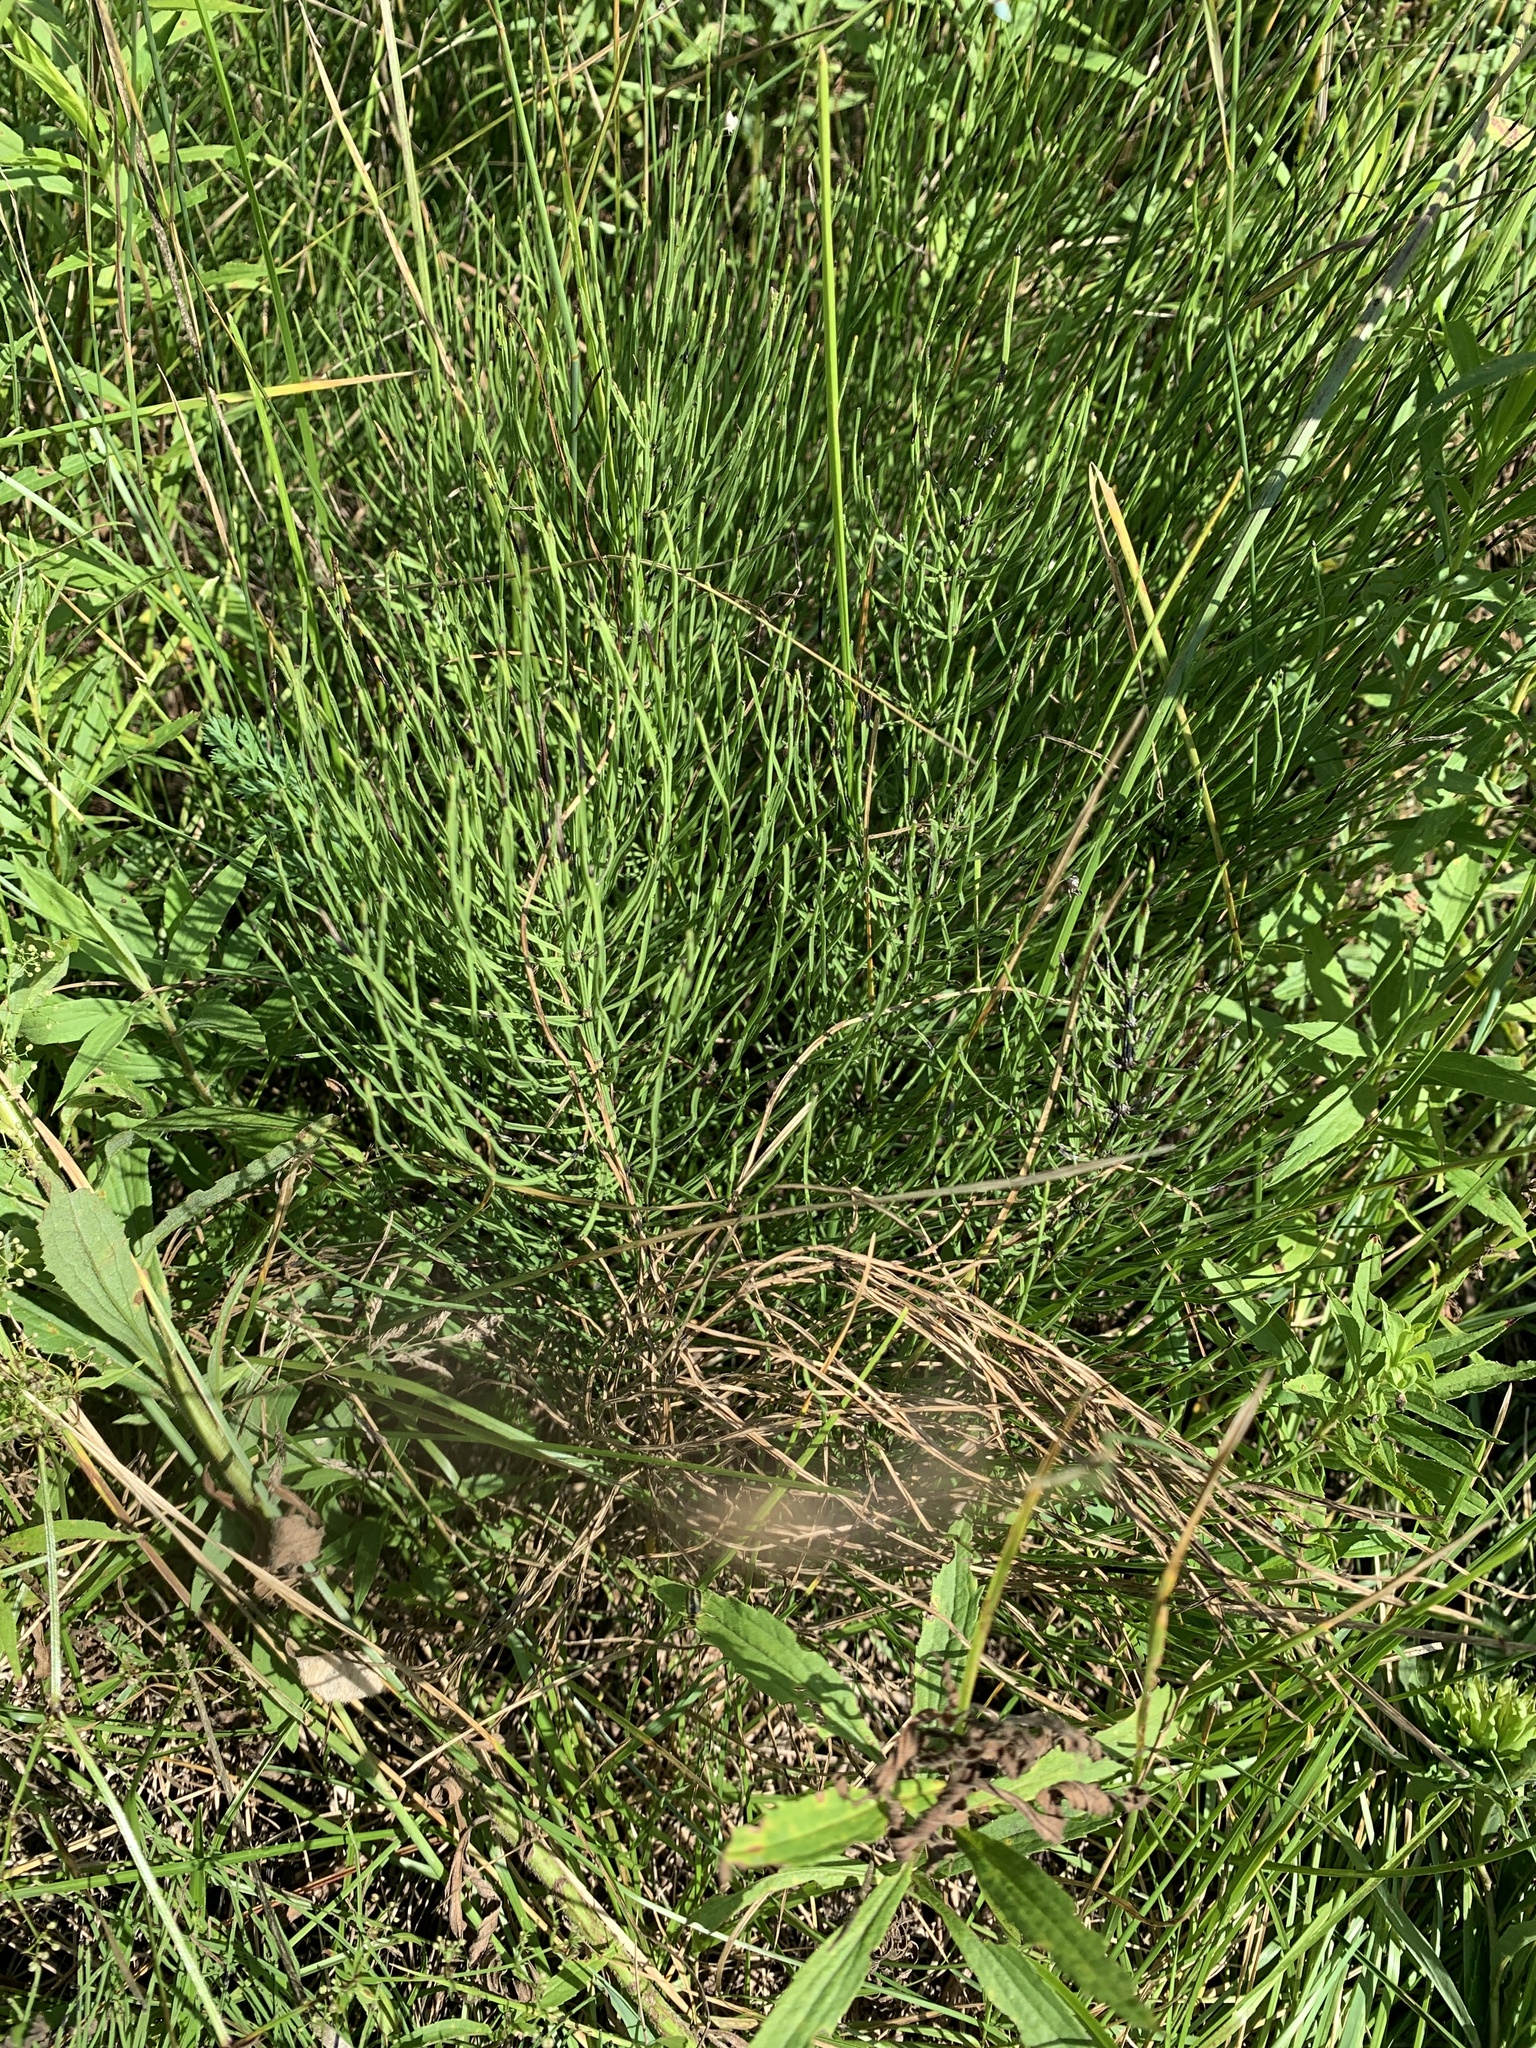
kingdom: Plantae
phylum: Tracheophyta
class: Polypodiopsida
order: Equisetales
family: Equisetaceae
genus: Equisetum
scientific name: Equisetum arvense
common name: Field horsetail
